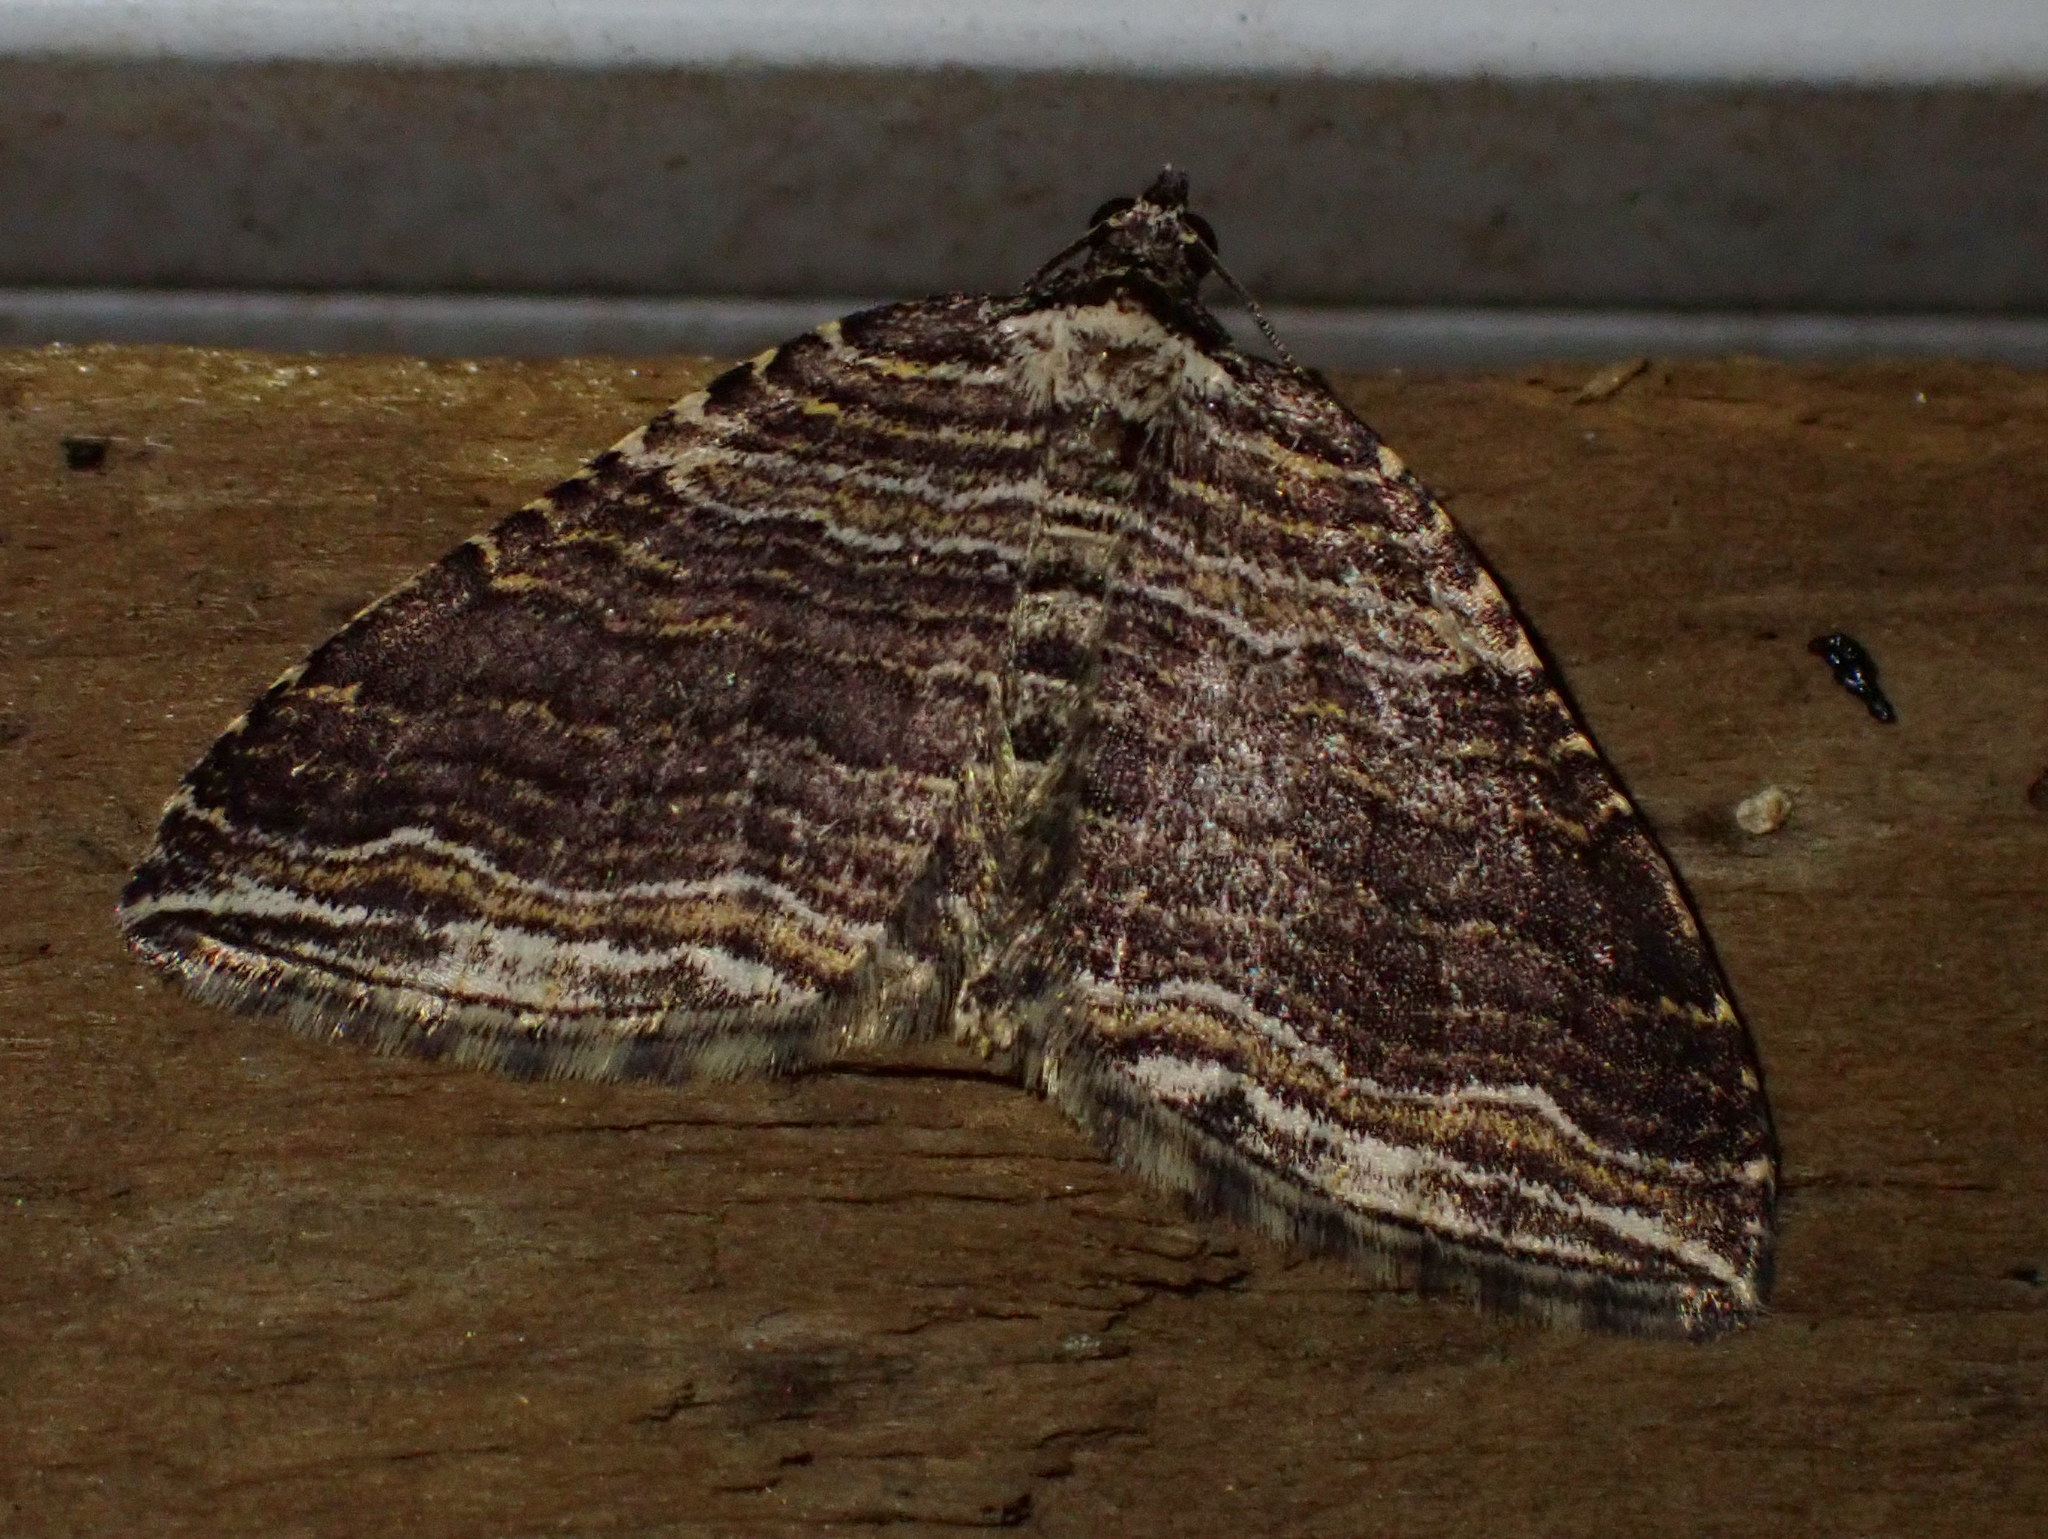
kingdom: Animalia
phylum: Arthropoda
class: Insecta
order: Lepidoptera
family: Geometridae
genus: Anticlea
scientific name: Anticlea multiferata
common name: Many-lined carpet
